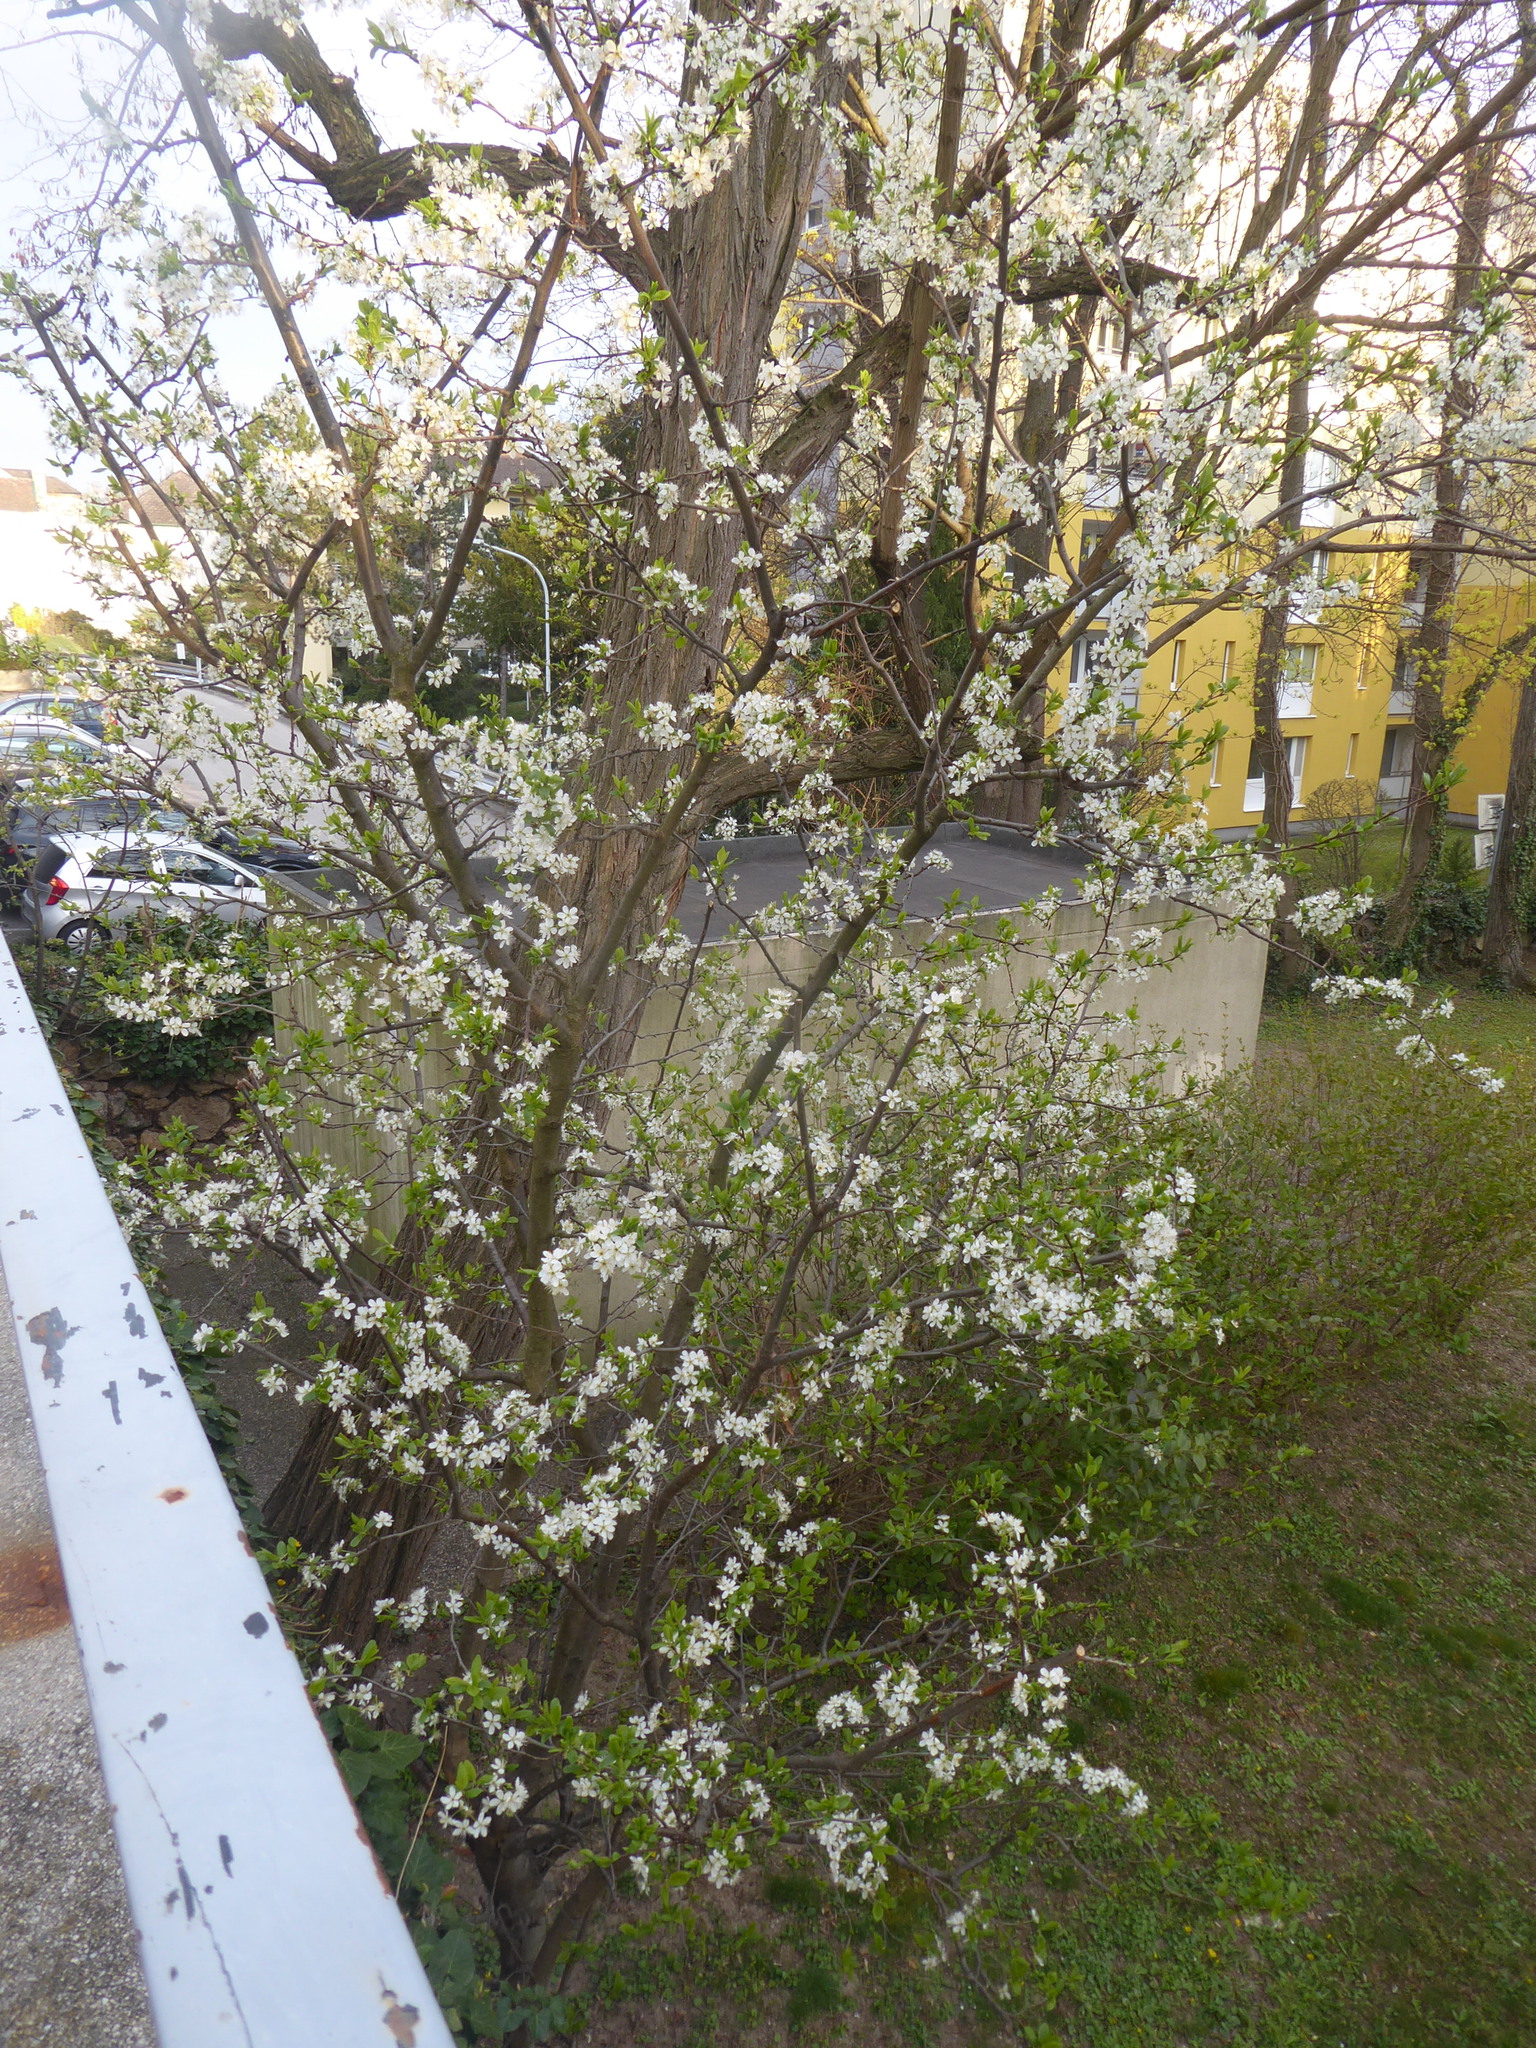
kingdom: Plantae
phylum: Tracheophyta
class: Magnoliopsida
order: Rosales
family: Rosaceae
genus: Prunus
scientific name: Prunus domestica
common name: Wild plum
